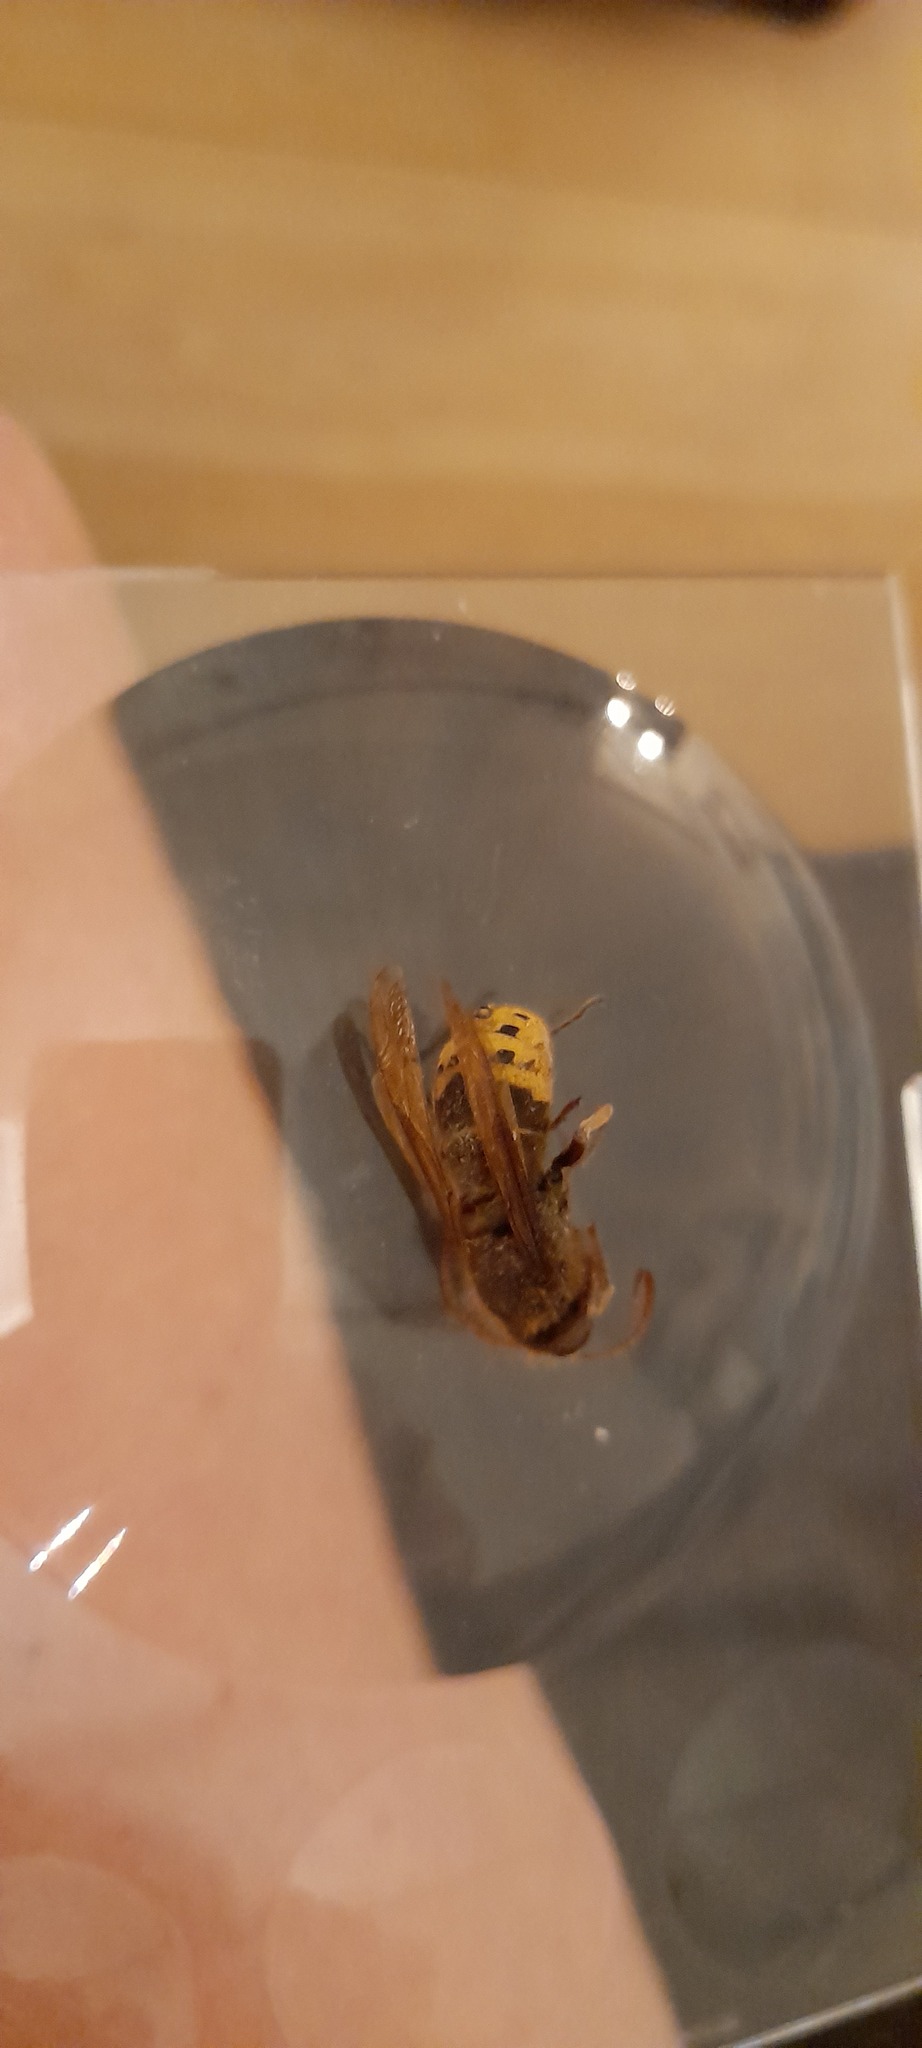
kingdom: Animalia
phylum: Arthropoda
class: Insecta
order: Hymenoptera
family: Vespidae
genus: Vespa
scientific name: Vespa crabro
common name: Hornet
